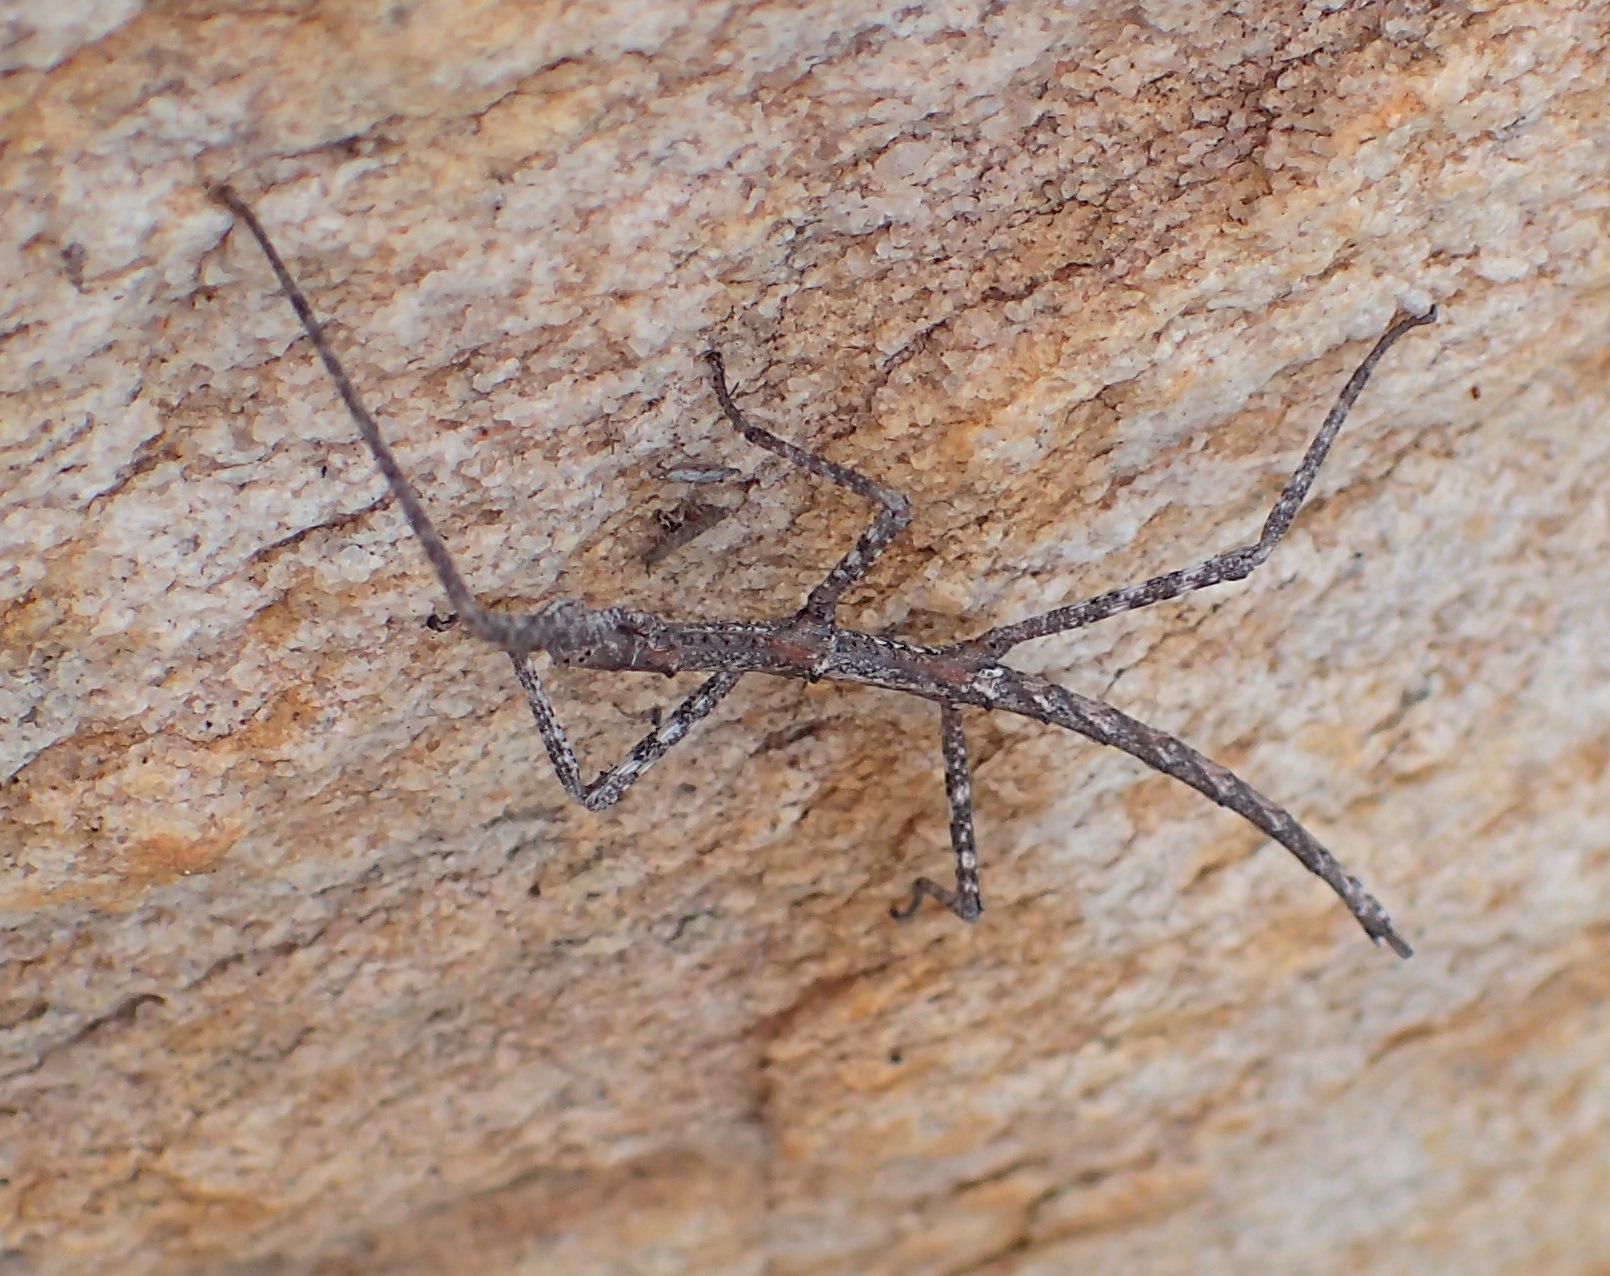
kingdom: Animalia
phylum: Arthropoda
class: Insecta
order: Phasmida
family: Bacillidae
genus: Zehntneria
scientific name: Zehntneria mystica
